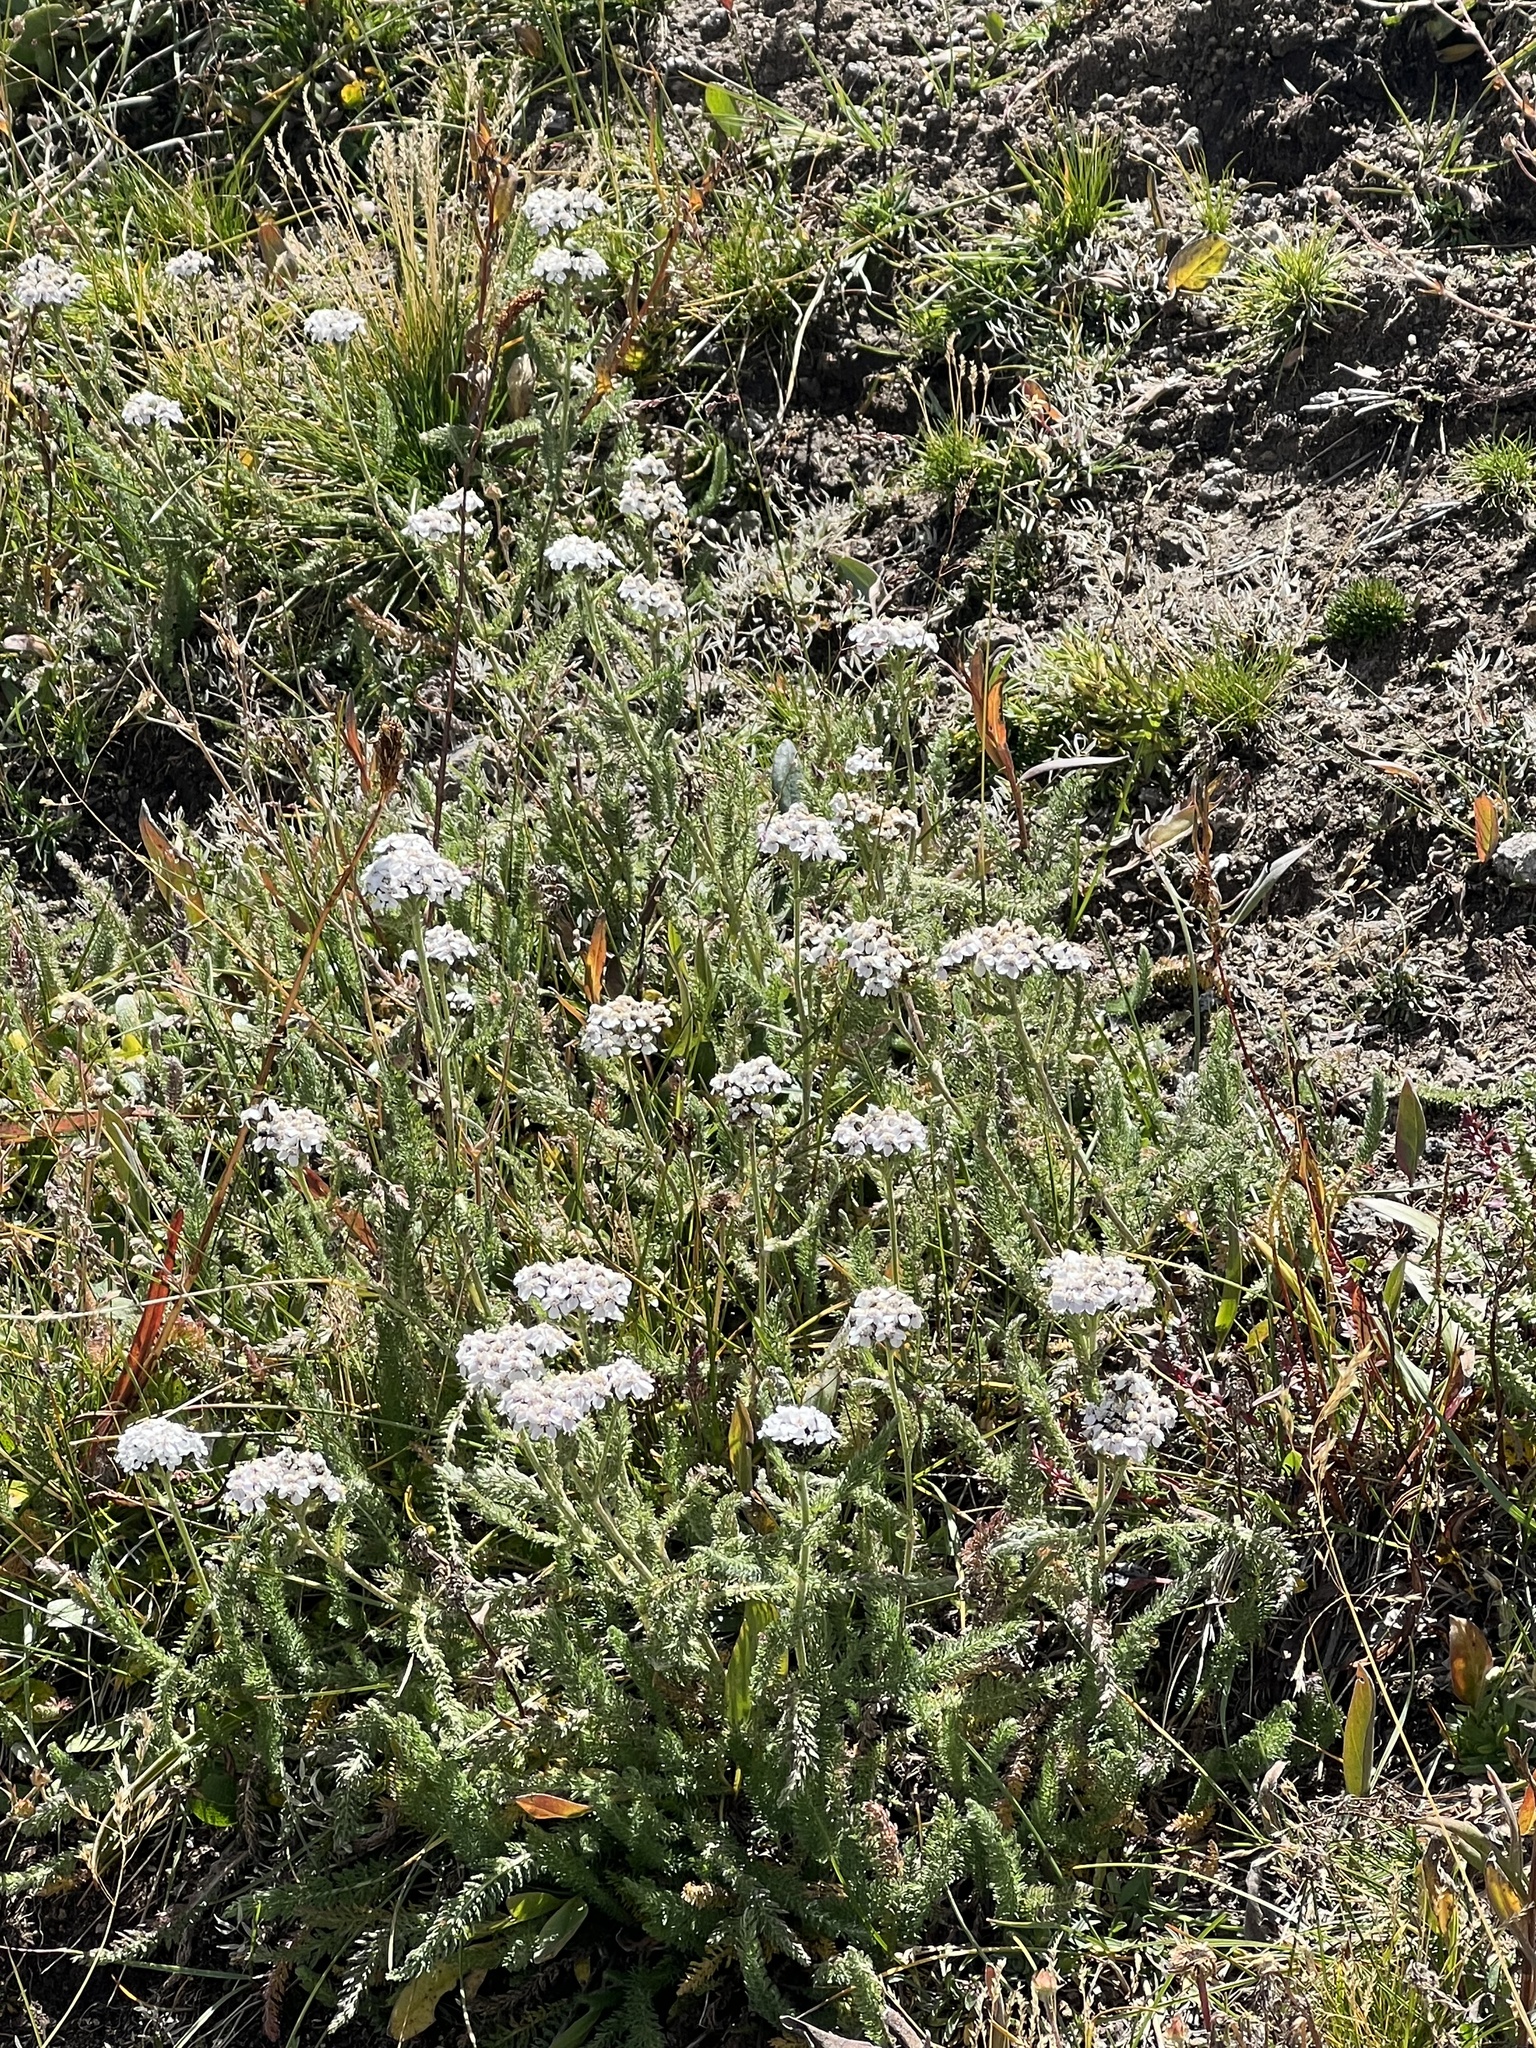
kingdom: Plantae
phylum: Tracheophyta
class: Magnoliopsida
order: Asterales
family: Asteraceae
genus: Achillea
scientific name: Achillea millefolium
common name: Yarrow
